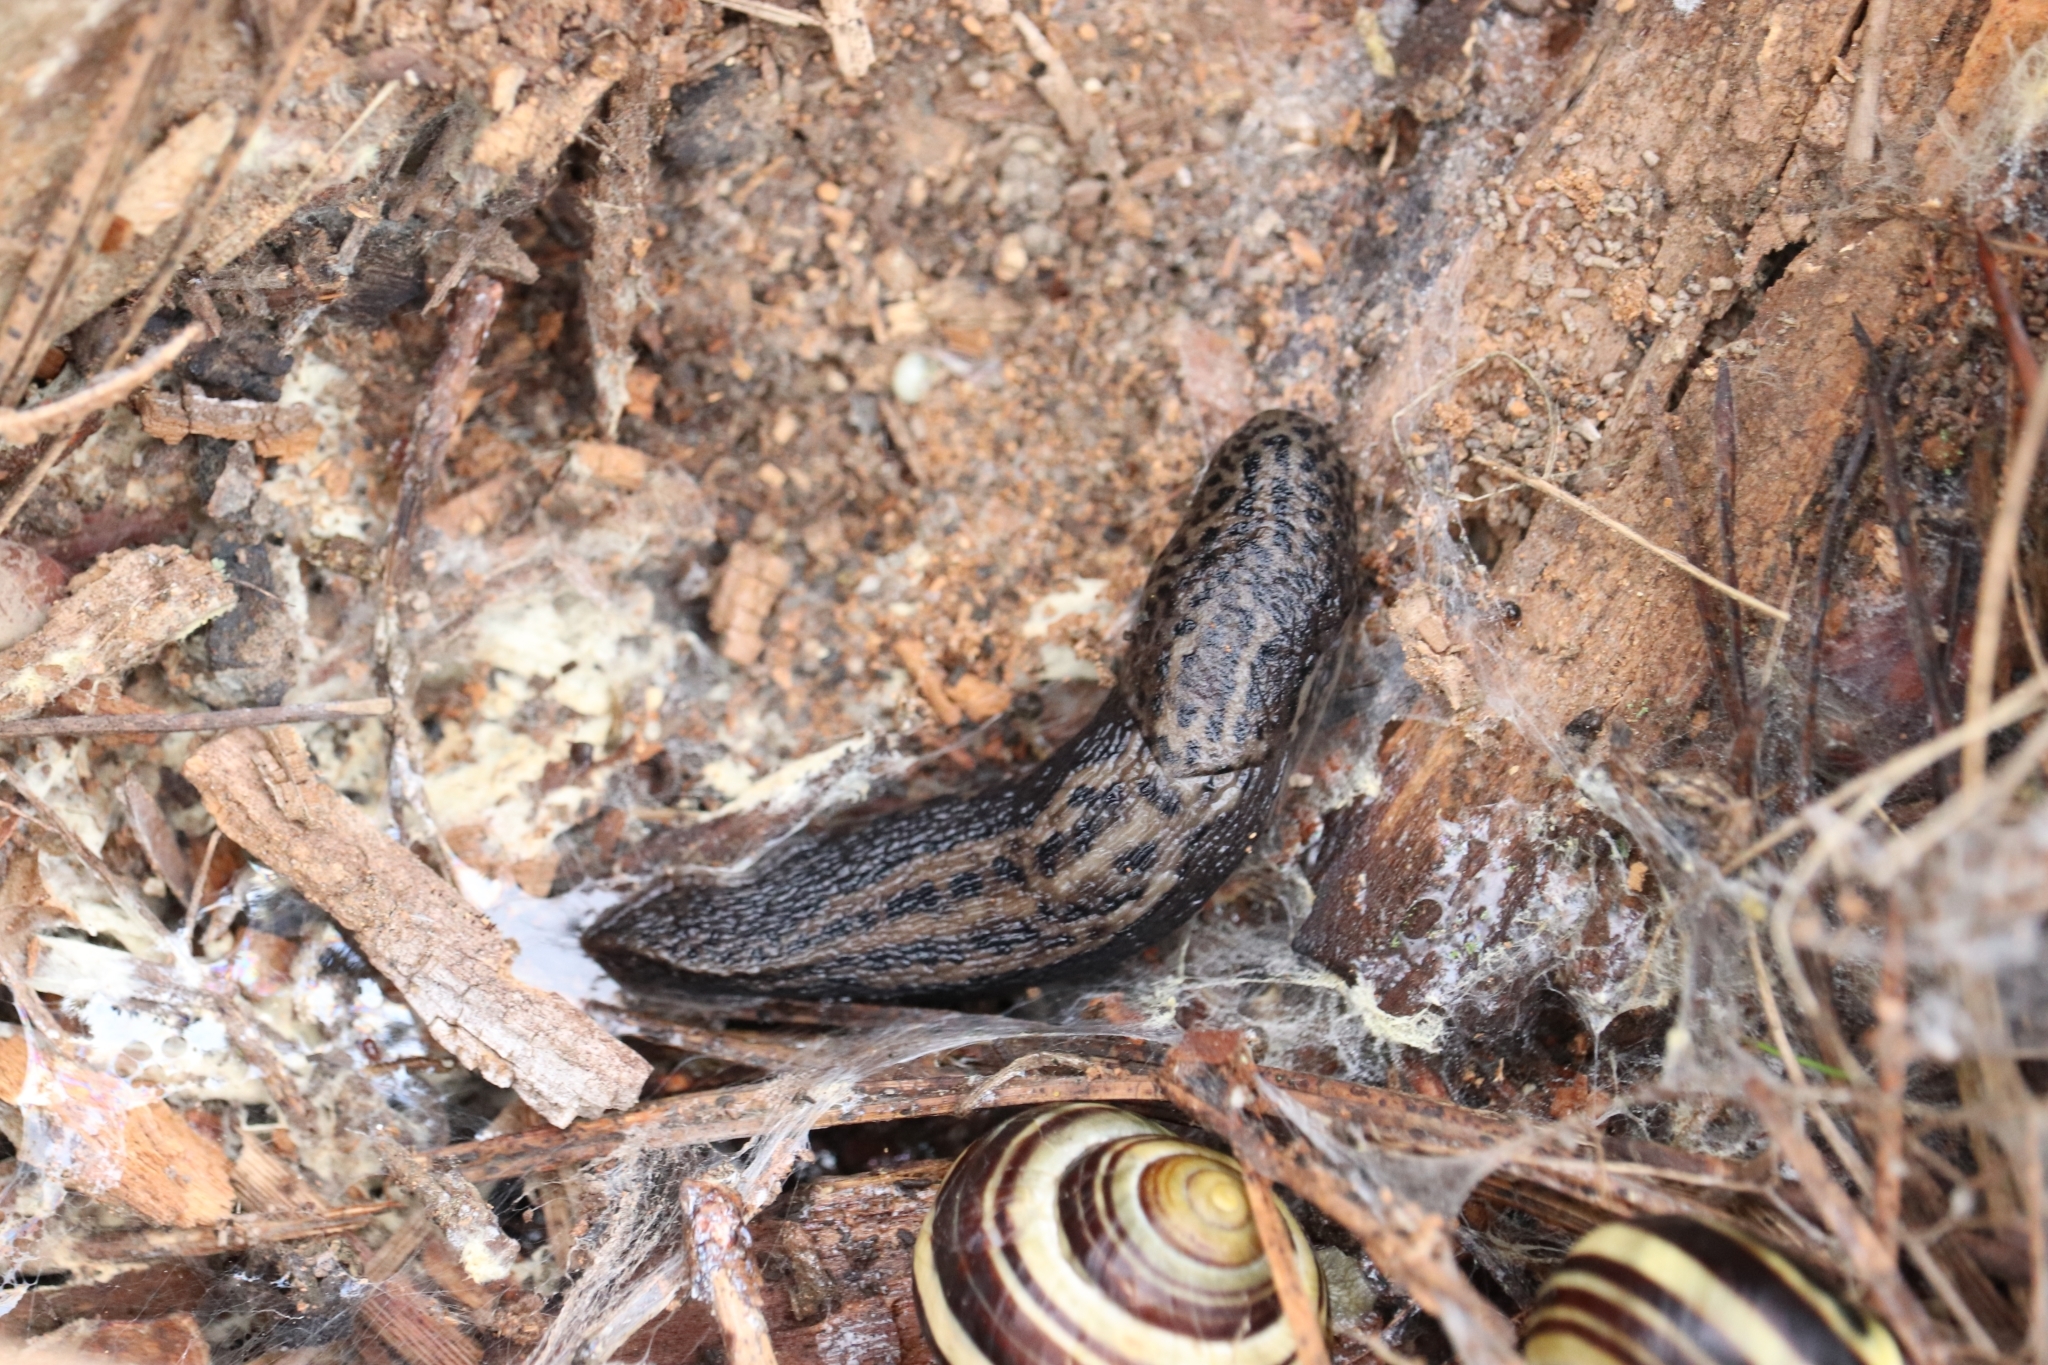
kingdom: Animalia
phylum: Mollusca
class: Gastropoda
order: Stylommatophora
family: Limacidae
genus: Limax
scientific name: Limax maximus
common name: Great grey slug
